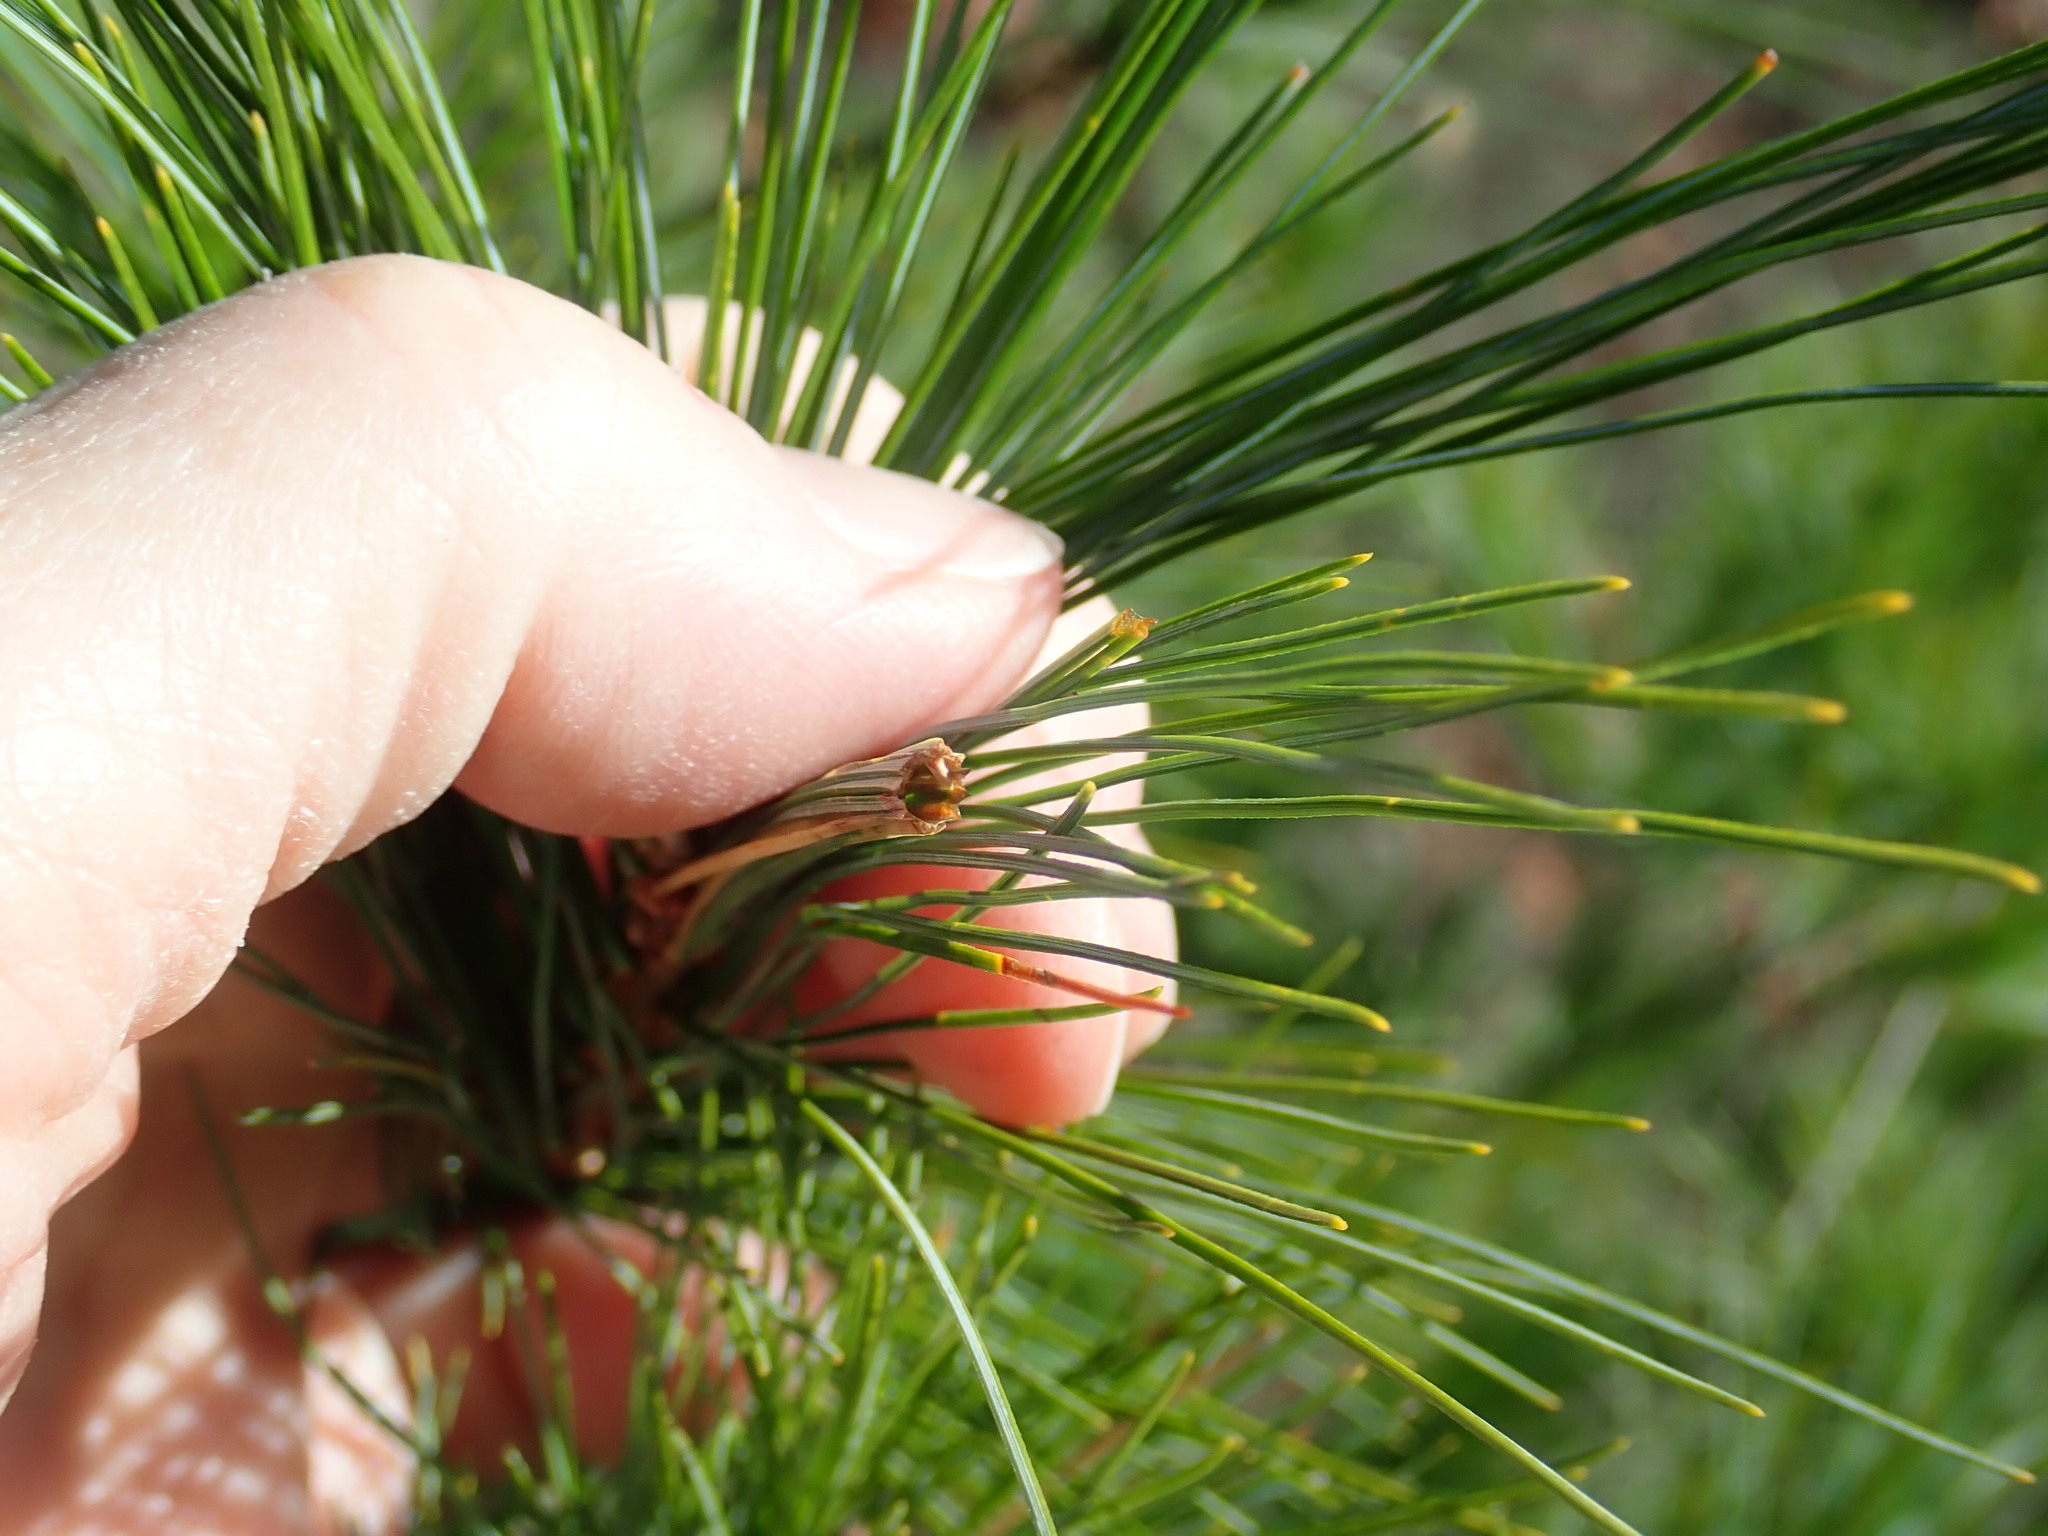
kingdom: Animalia
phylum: Arthropoda
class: Insecta
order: Lepidoptera
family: Tortricidae
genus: Argyrotaenia
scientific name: Argyrotaenia pinatubana
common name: Pine tube moth
